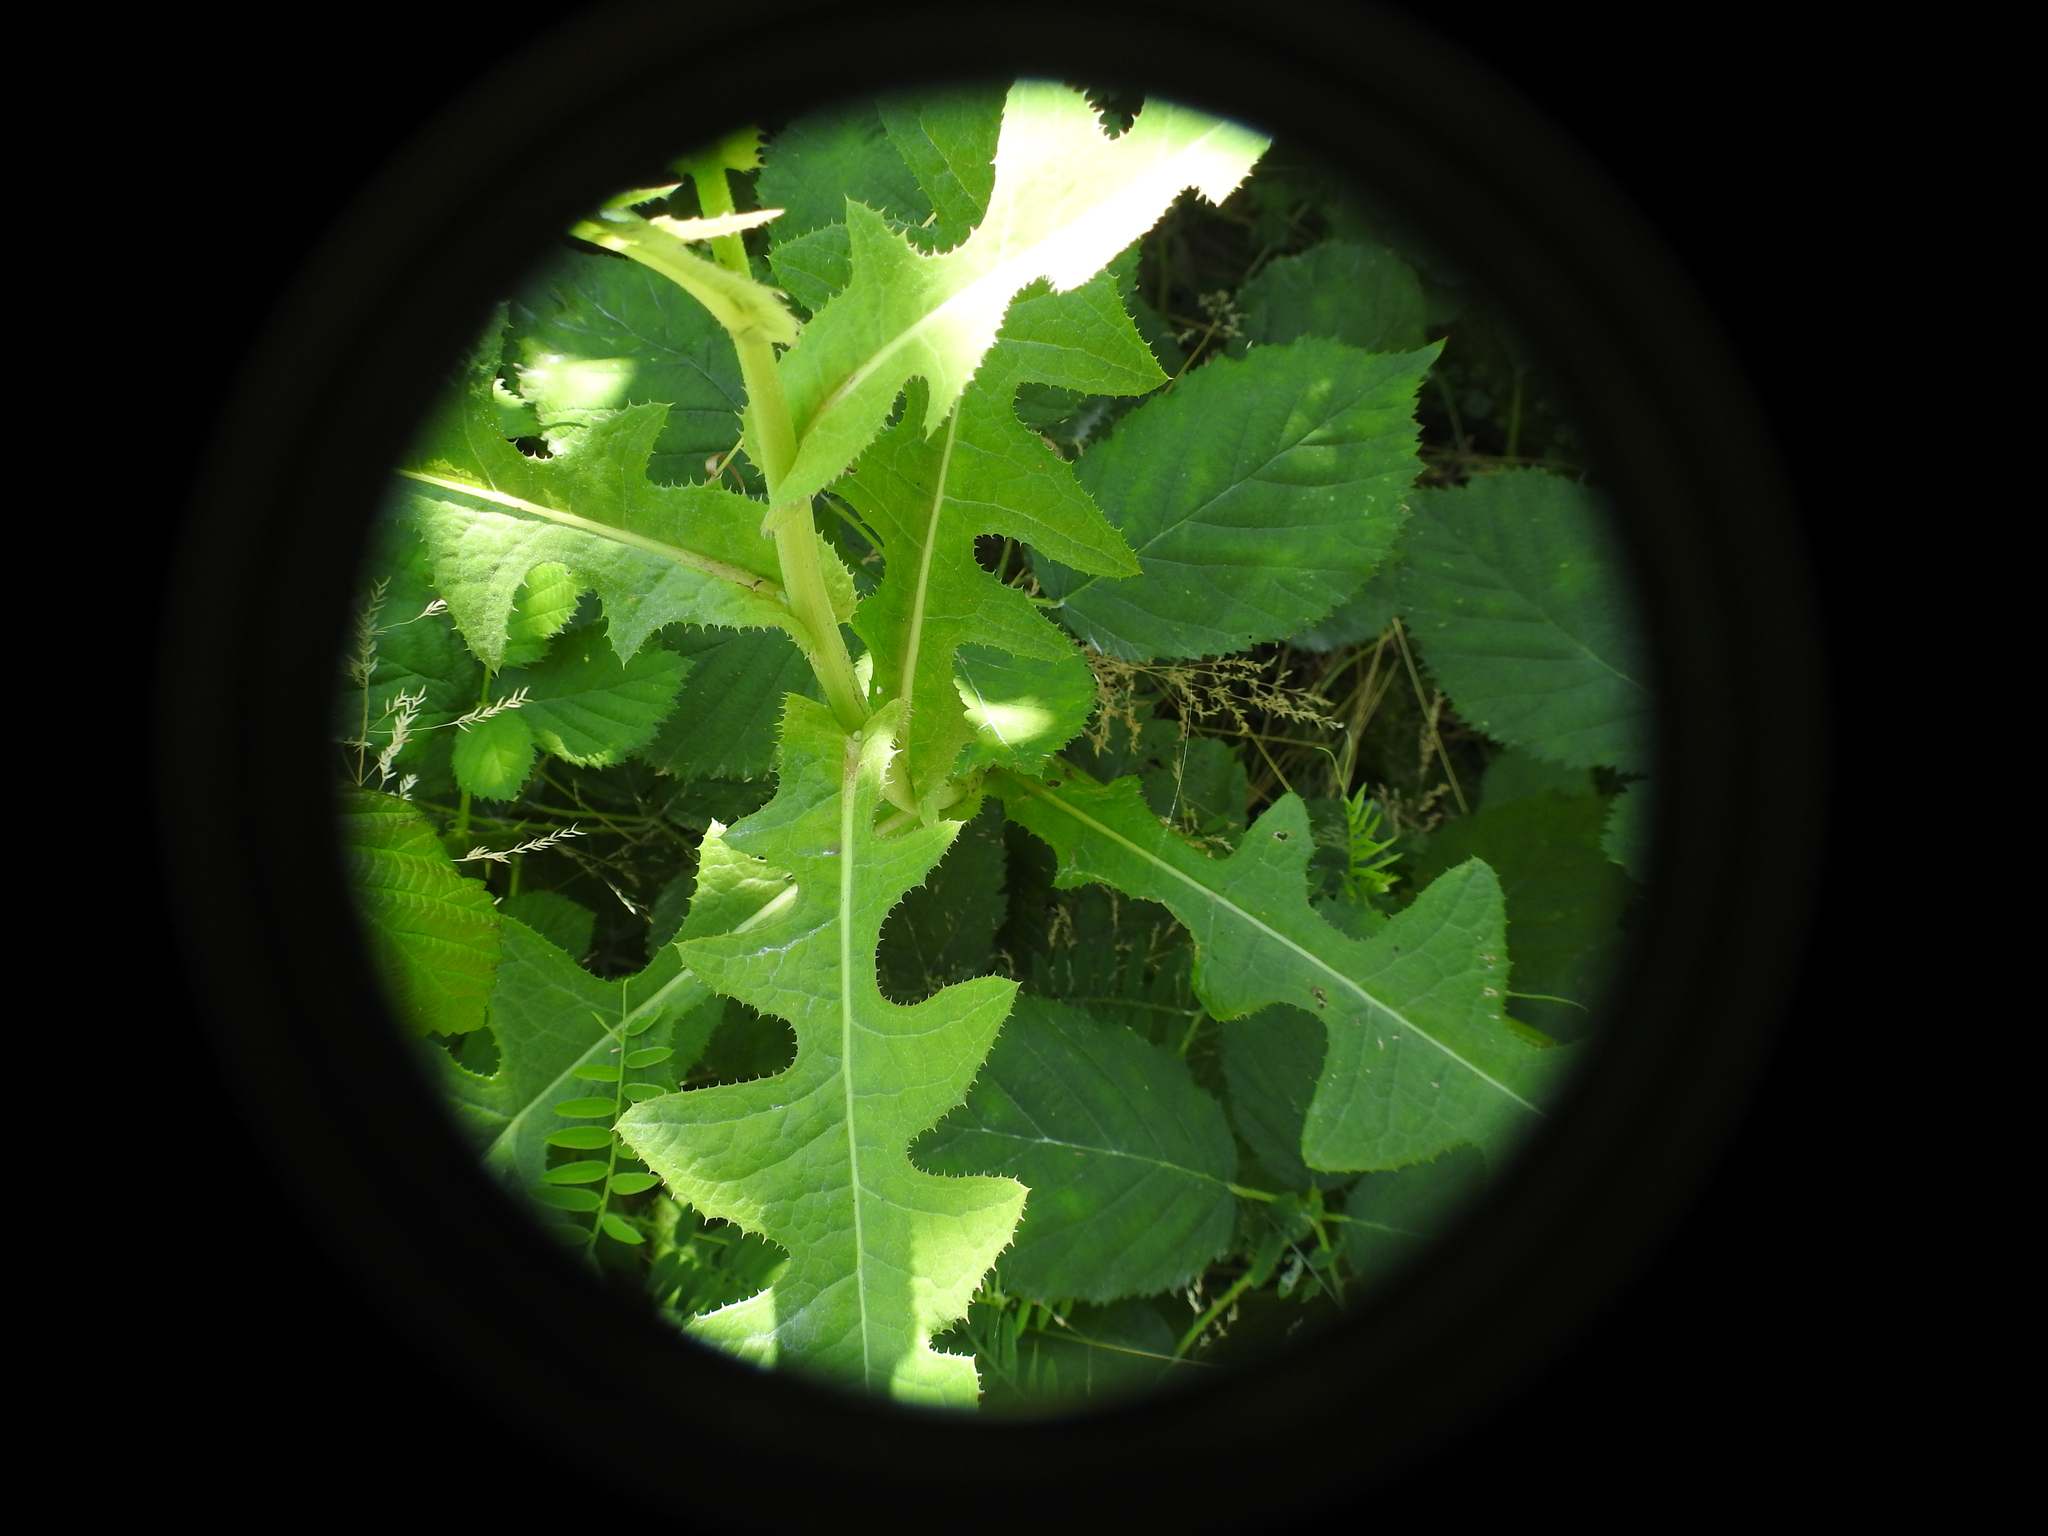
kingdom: Plantae
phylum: Tracheophyta
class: Magnoliopsida
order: Asterales
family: Asteraceae
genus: Sonchus
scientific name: Sonchus arvensis
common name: Perennial sow-thistle
